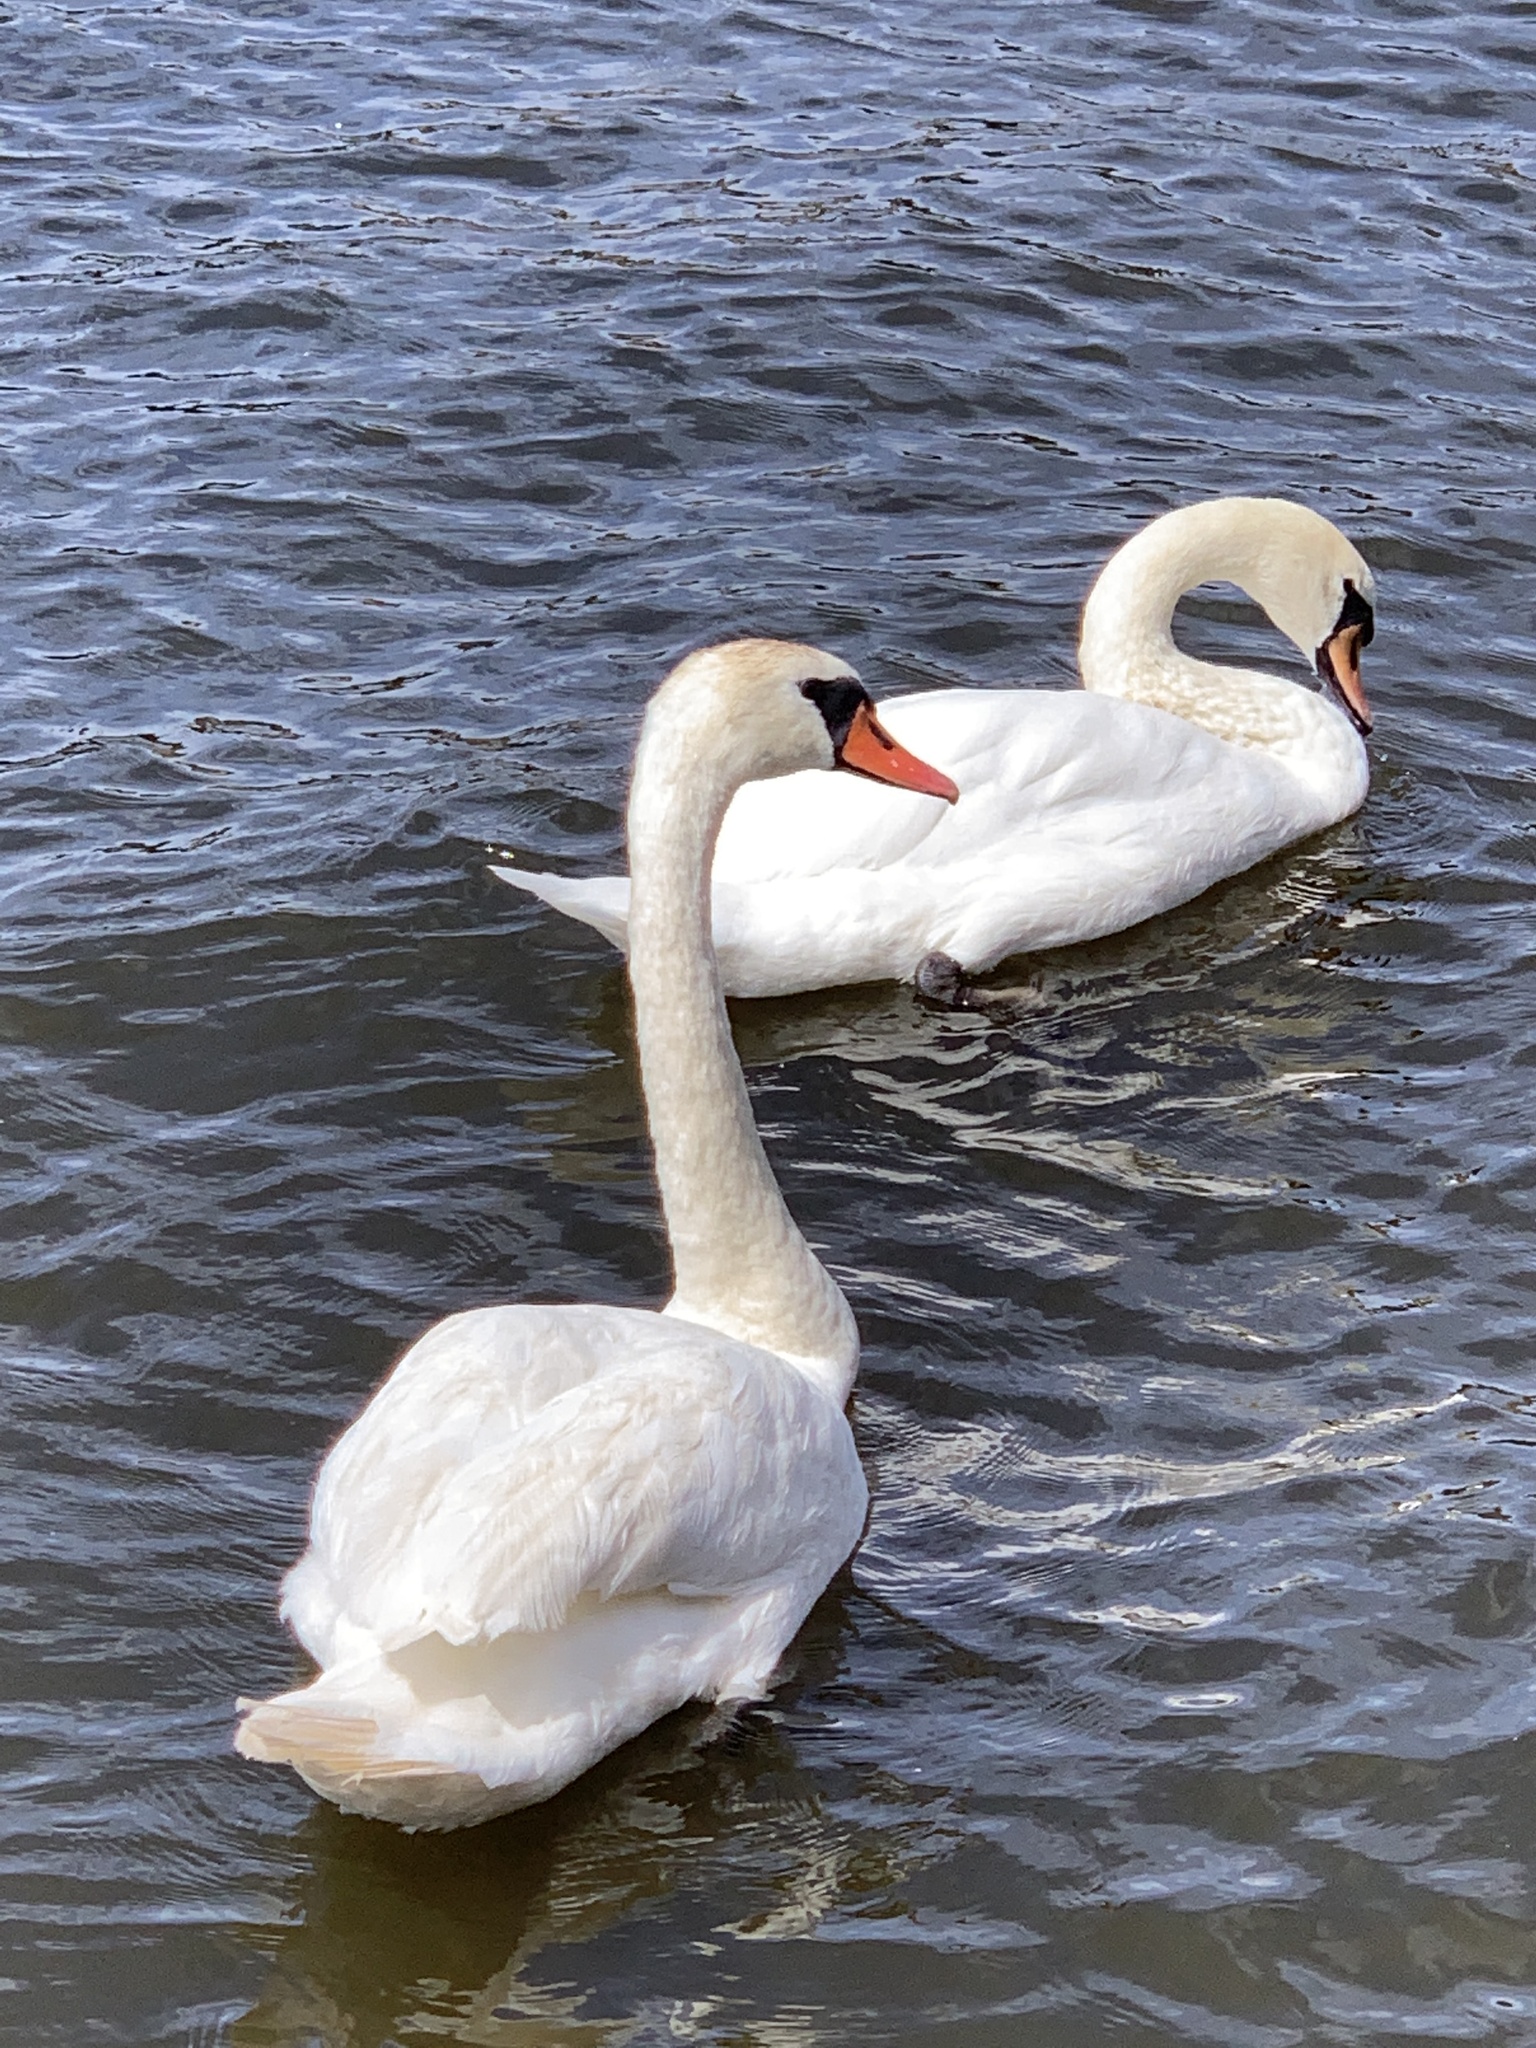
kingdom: Animalia
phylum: Chordata
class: Aves
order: Anseriformes
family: Anatidae
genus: Cygnus
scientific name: Cygnus olor
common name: Mute swan
